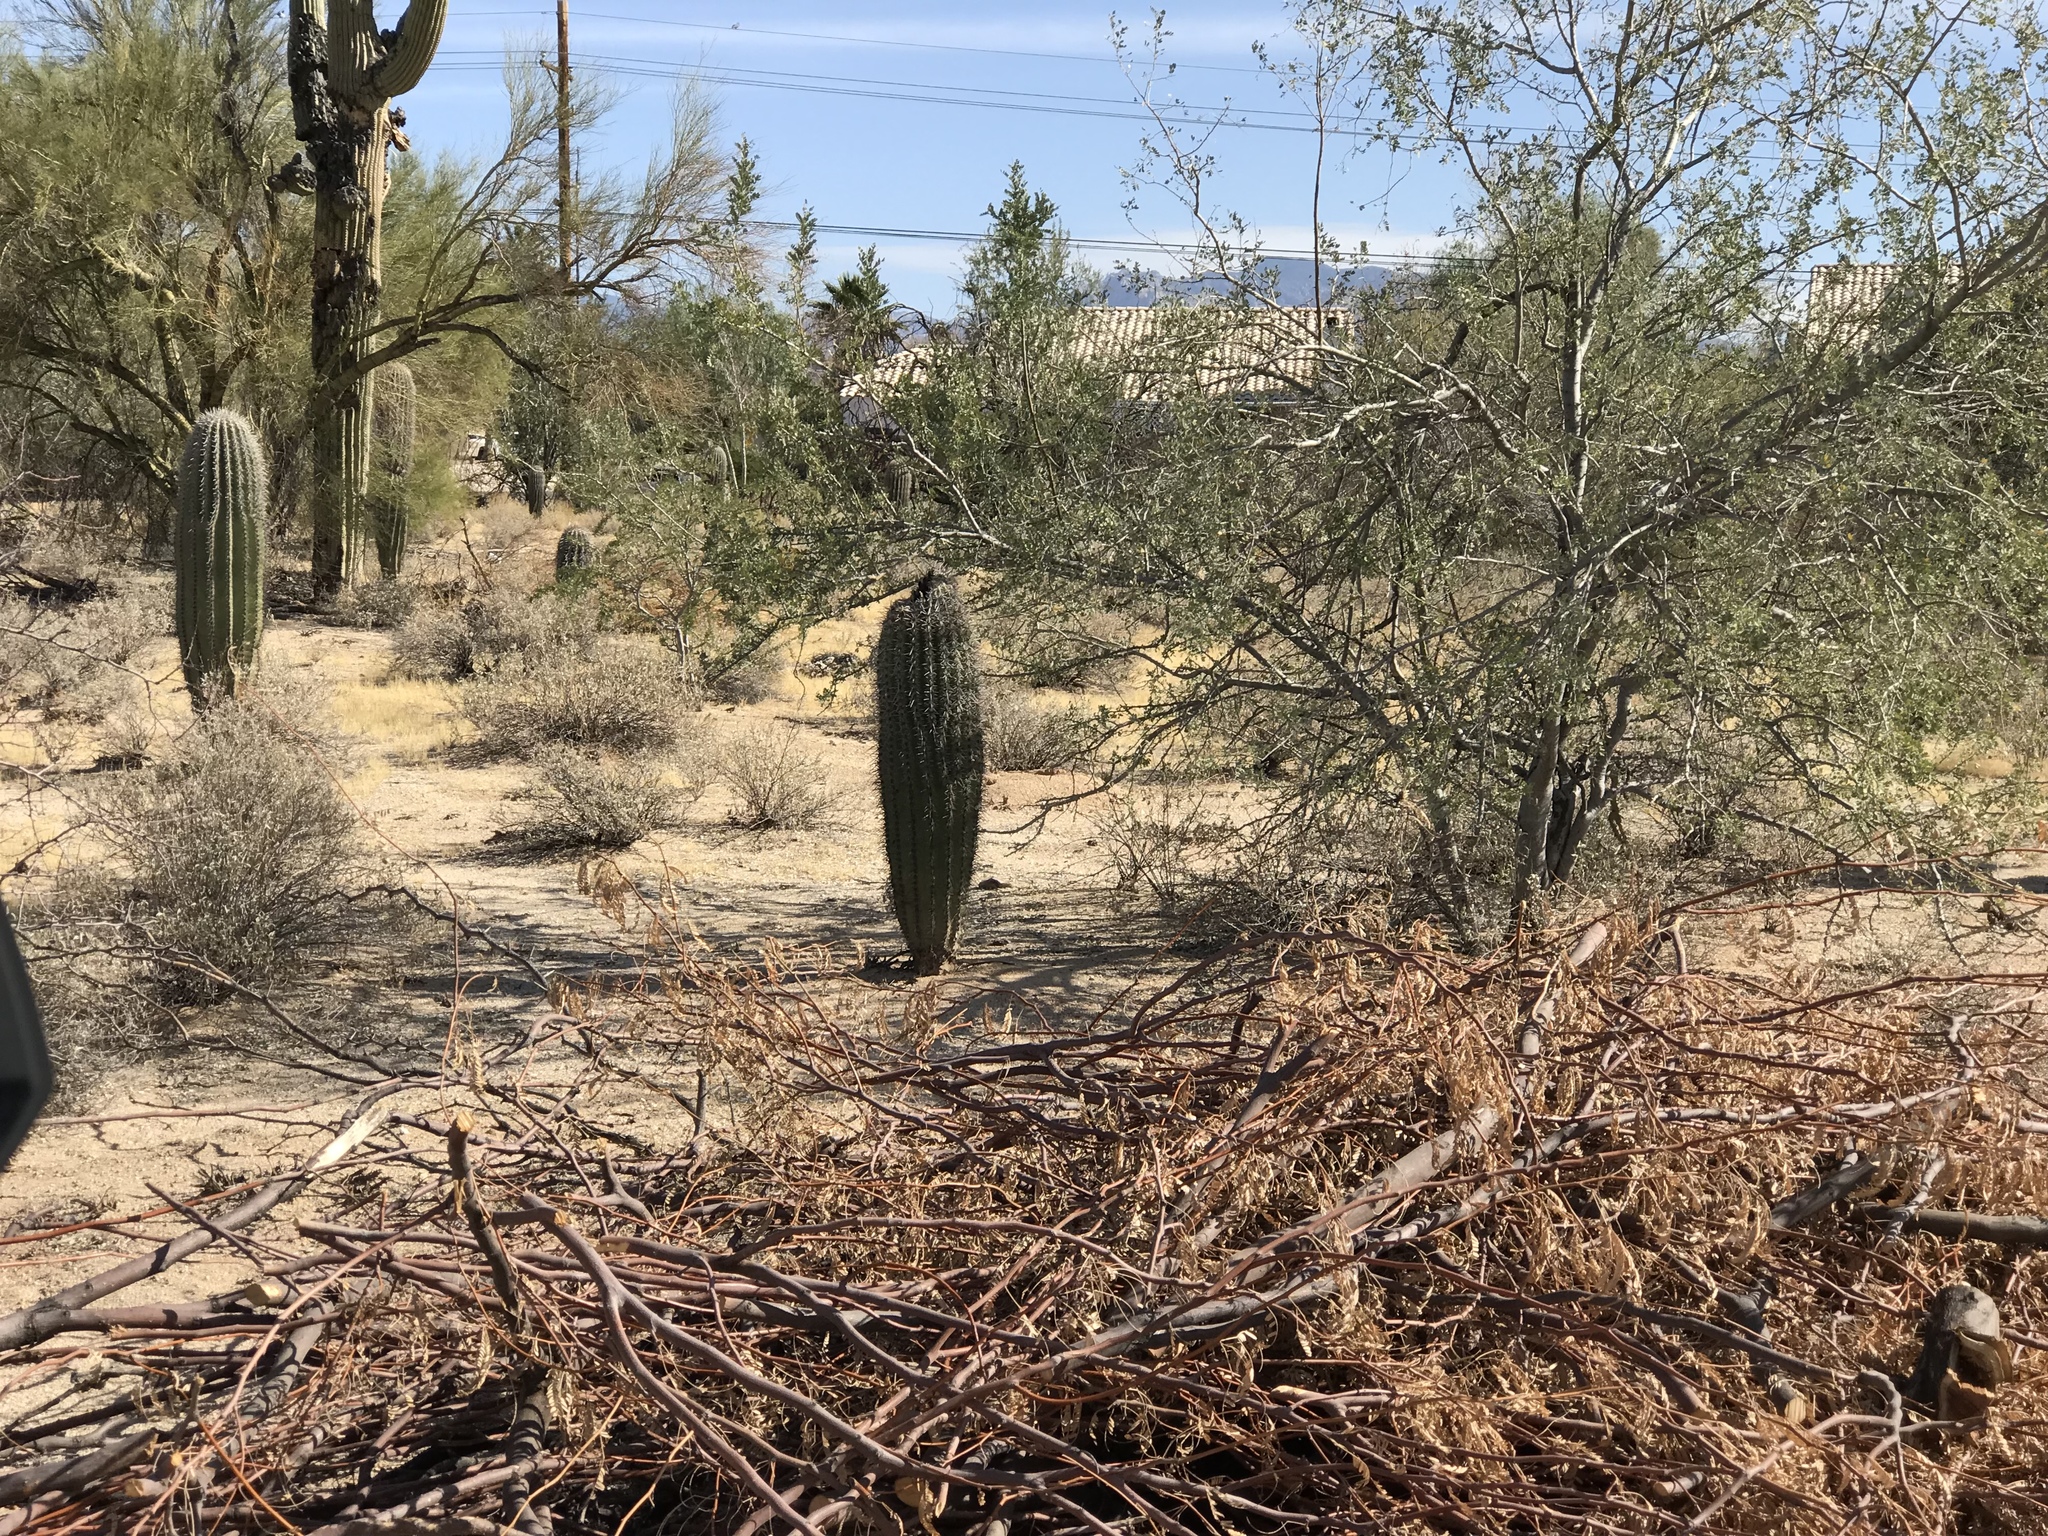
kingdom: Plantae
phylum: Tracheophyta
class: Magnoliopsida
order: Caryophyllales
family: Cactaceae
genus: Carnegiea
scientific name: Carnegiea gigantea
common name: Saguaro
